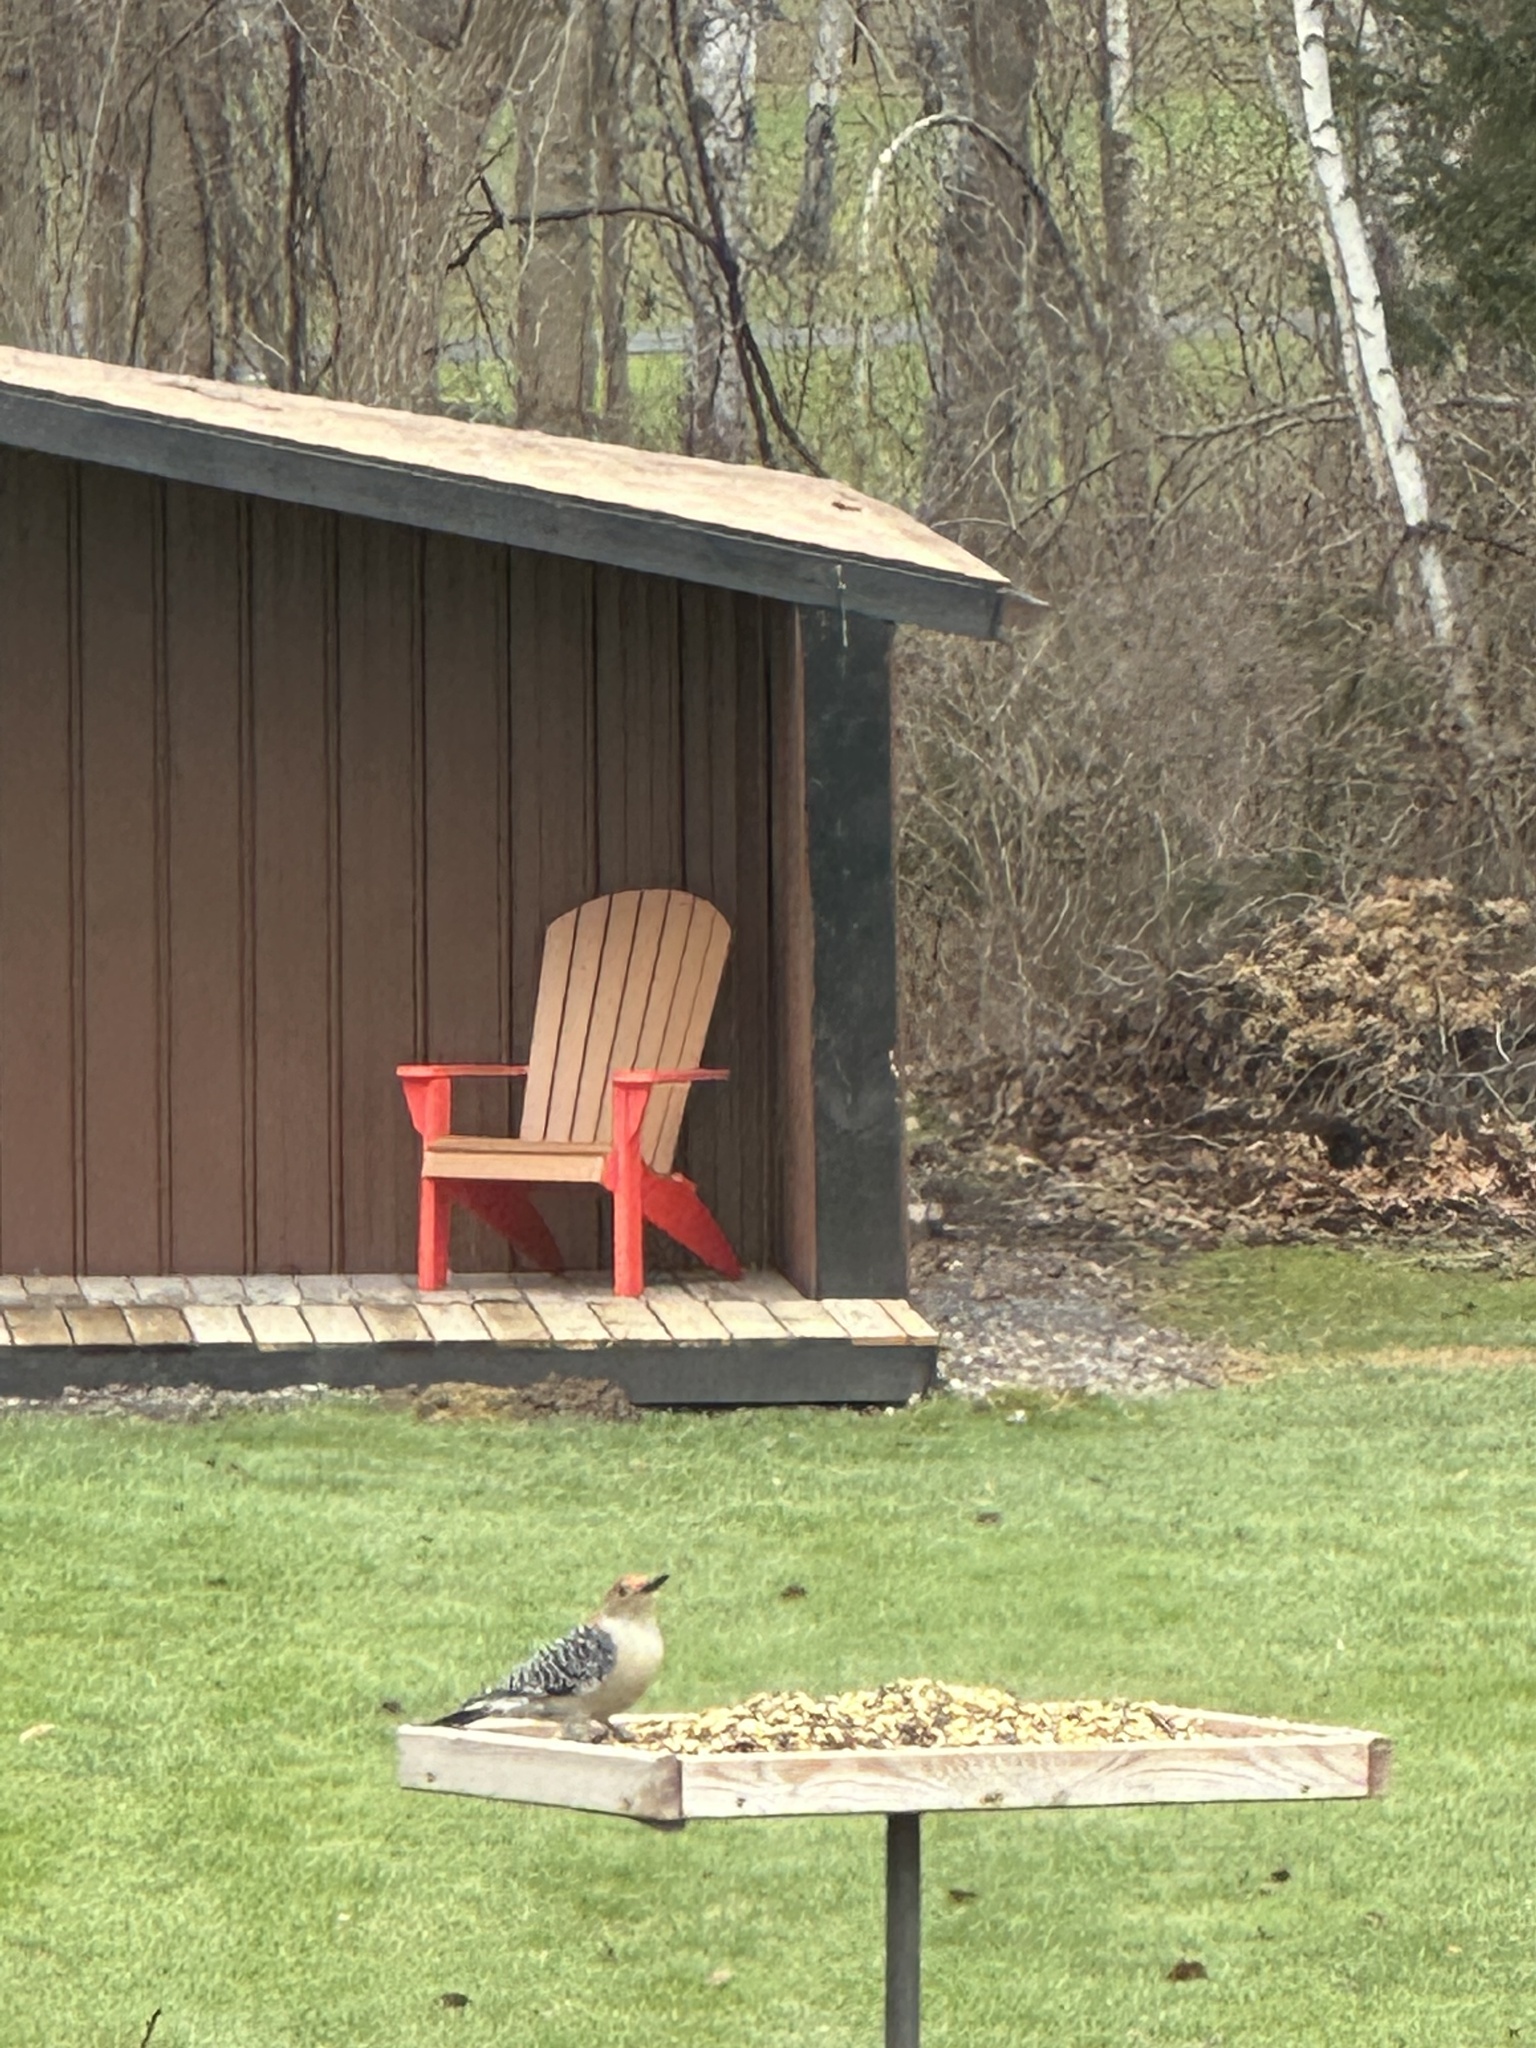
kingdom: Animalia
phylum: Chordata
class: Aves
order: Piciformes
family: Picidae
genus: Melanerpes
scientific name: Melanerpes carolinus
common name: Red-bellied woodpecker
